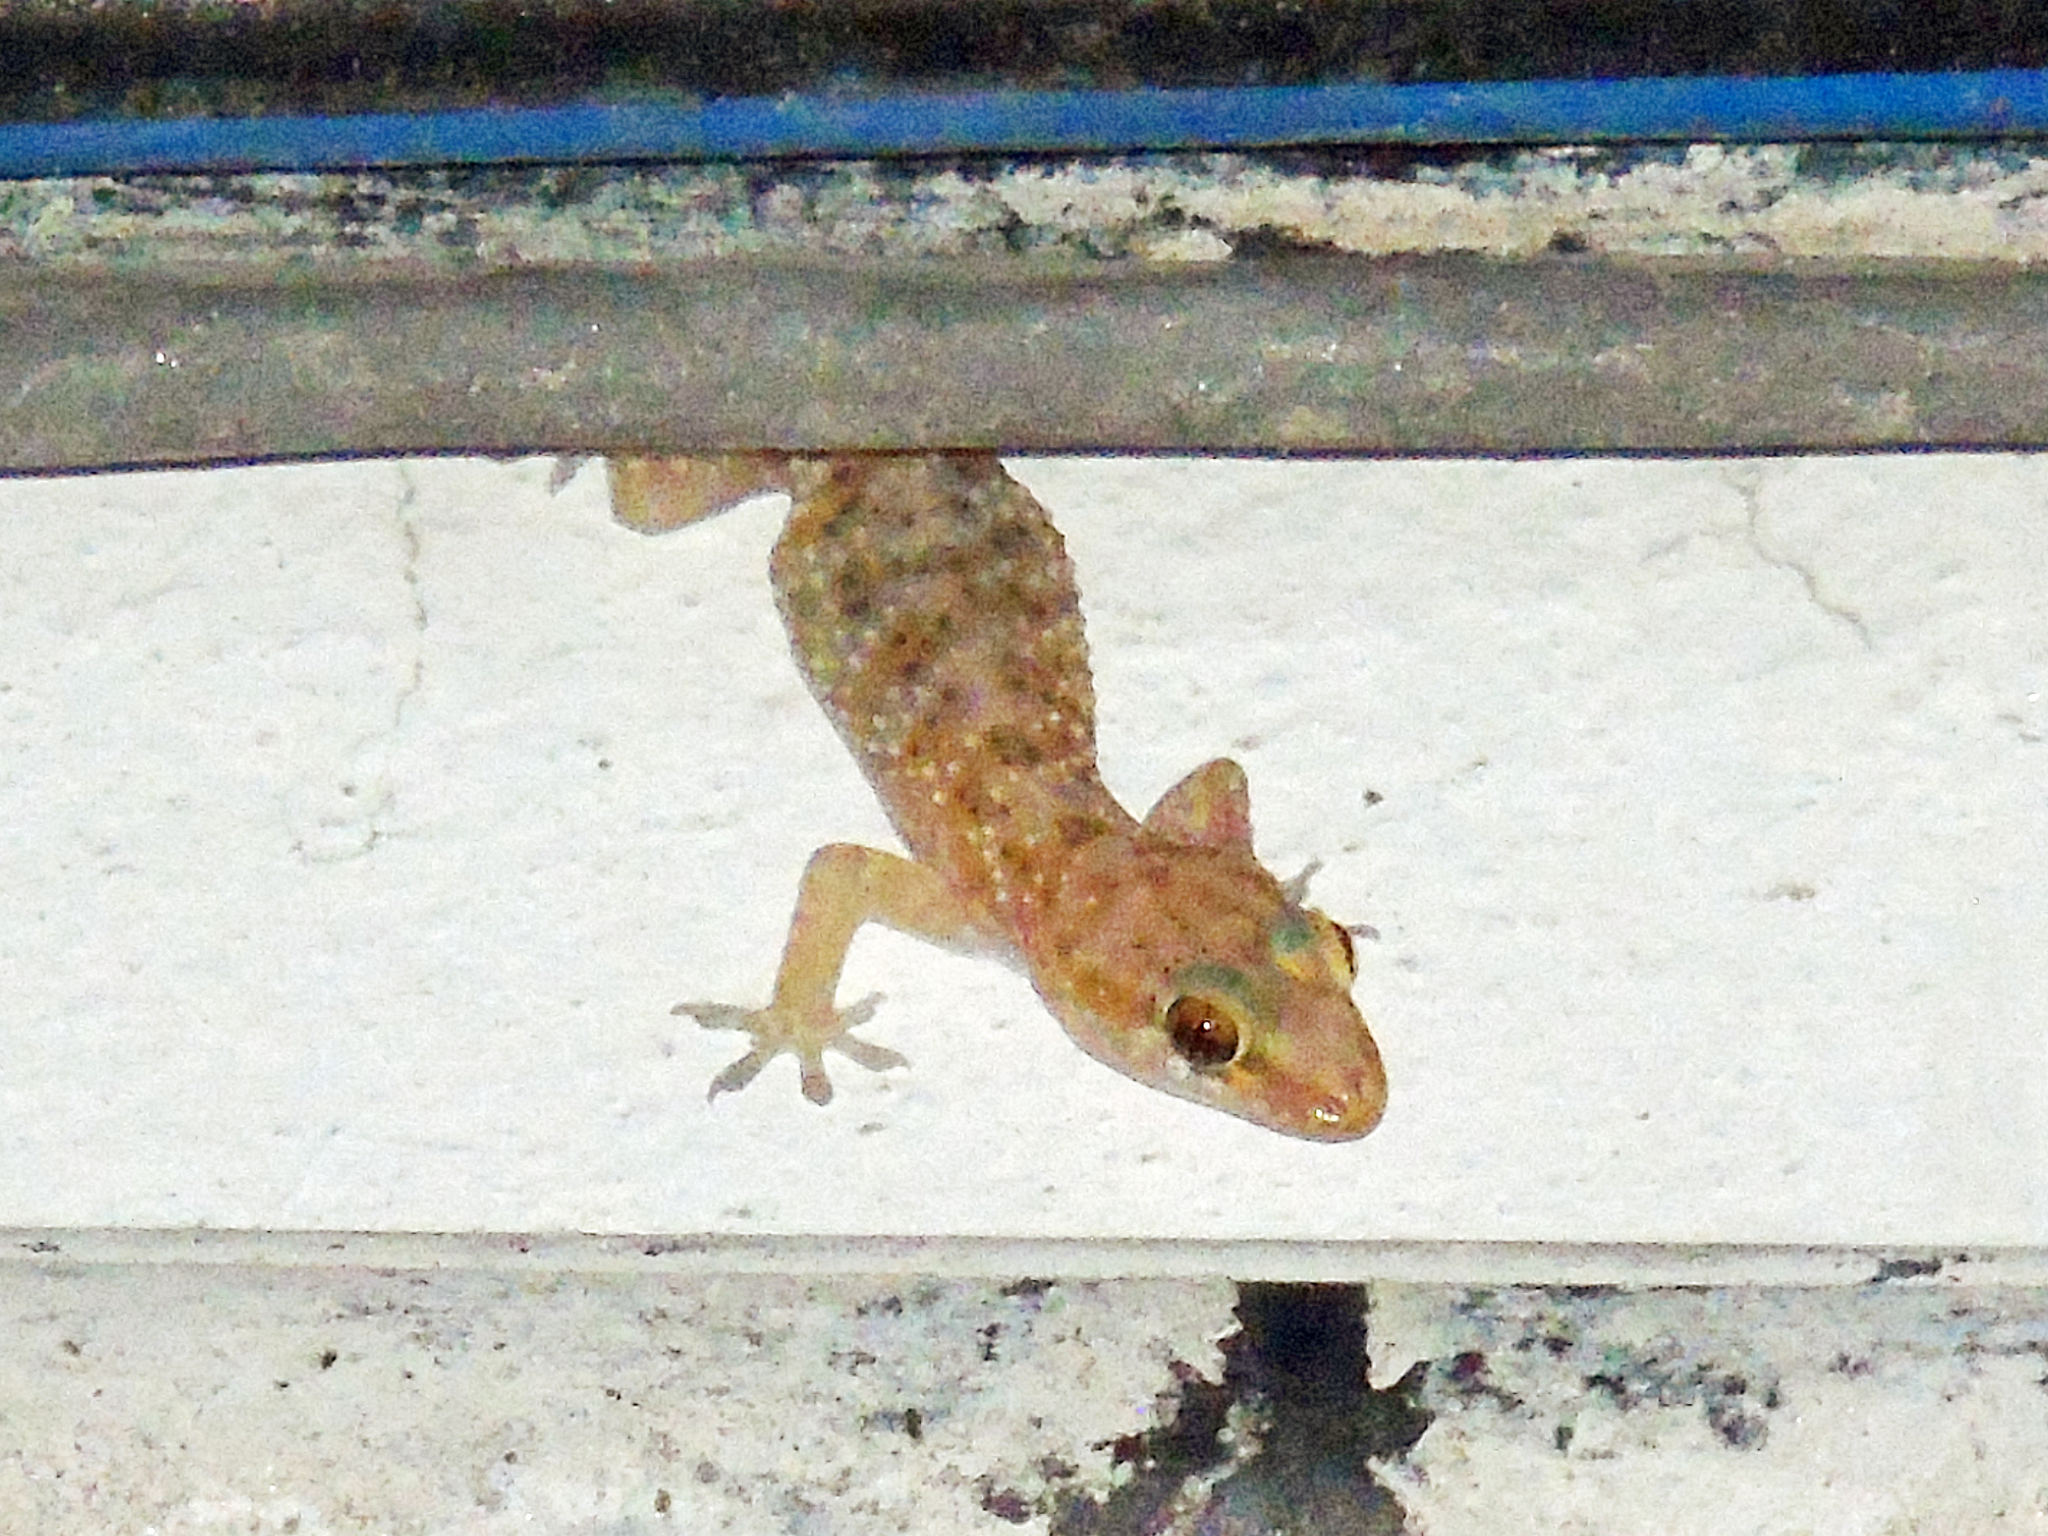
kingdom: Animalia
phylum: Chordata
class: Squamata
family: Gekkonidae
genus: Hemidactylus
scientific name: Hemidactylus turcicus
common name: Turkish gecko
